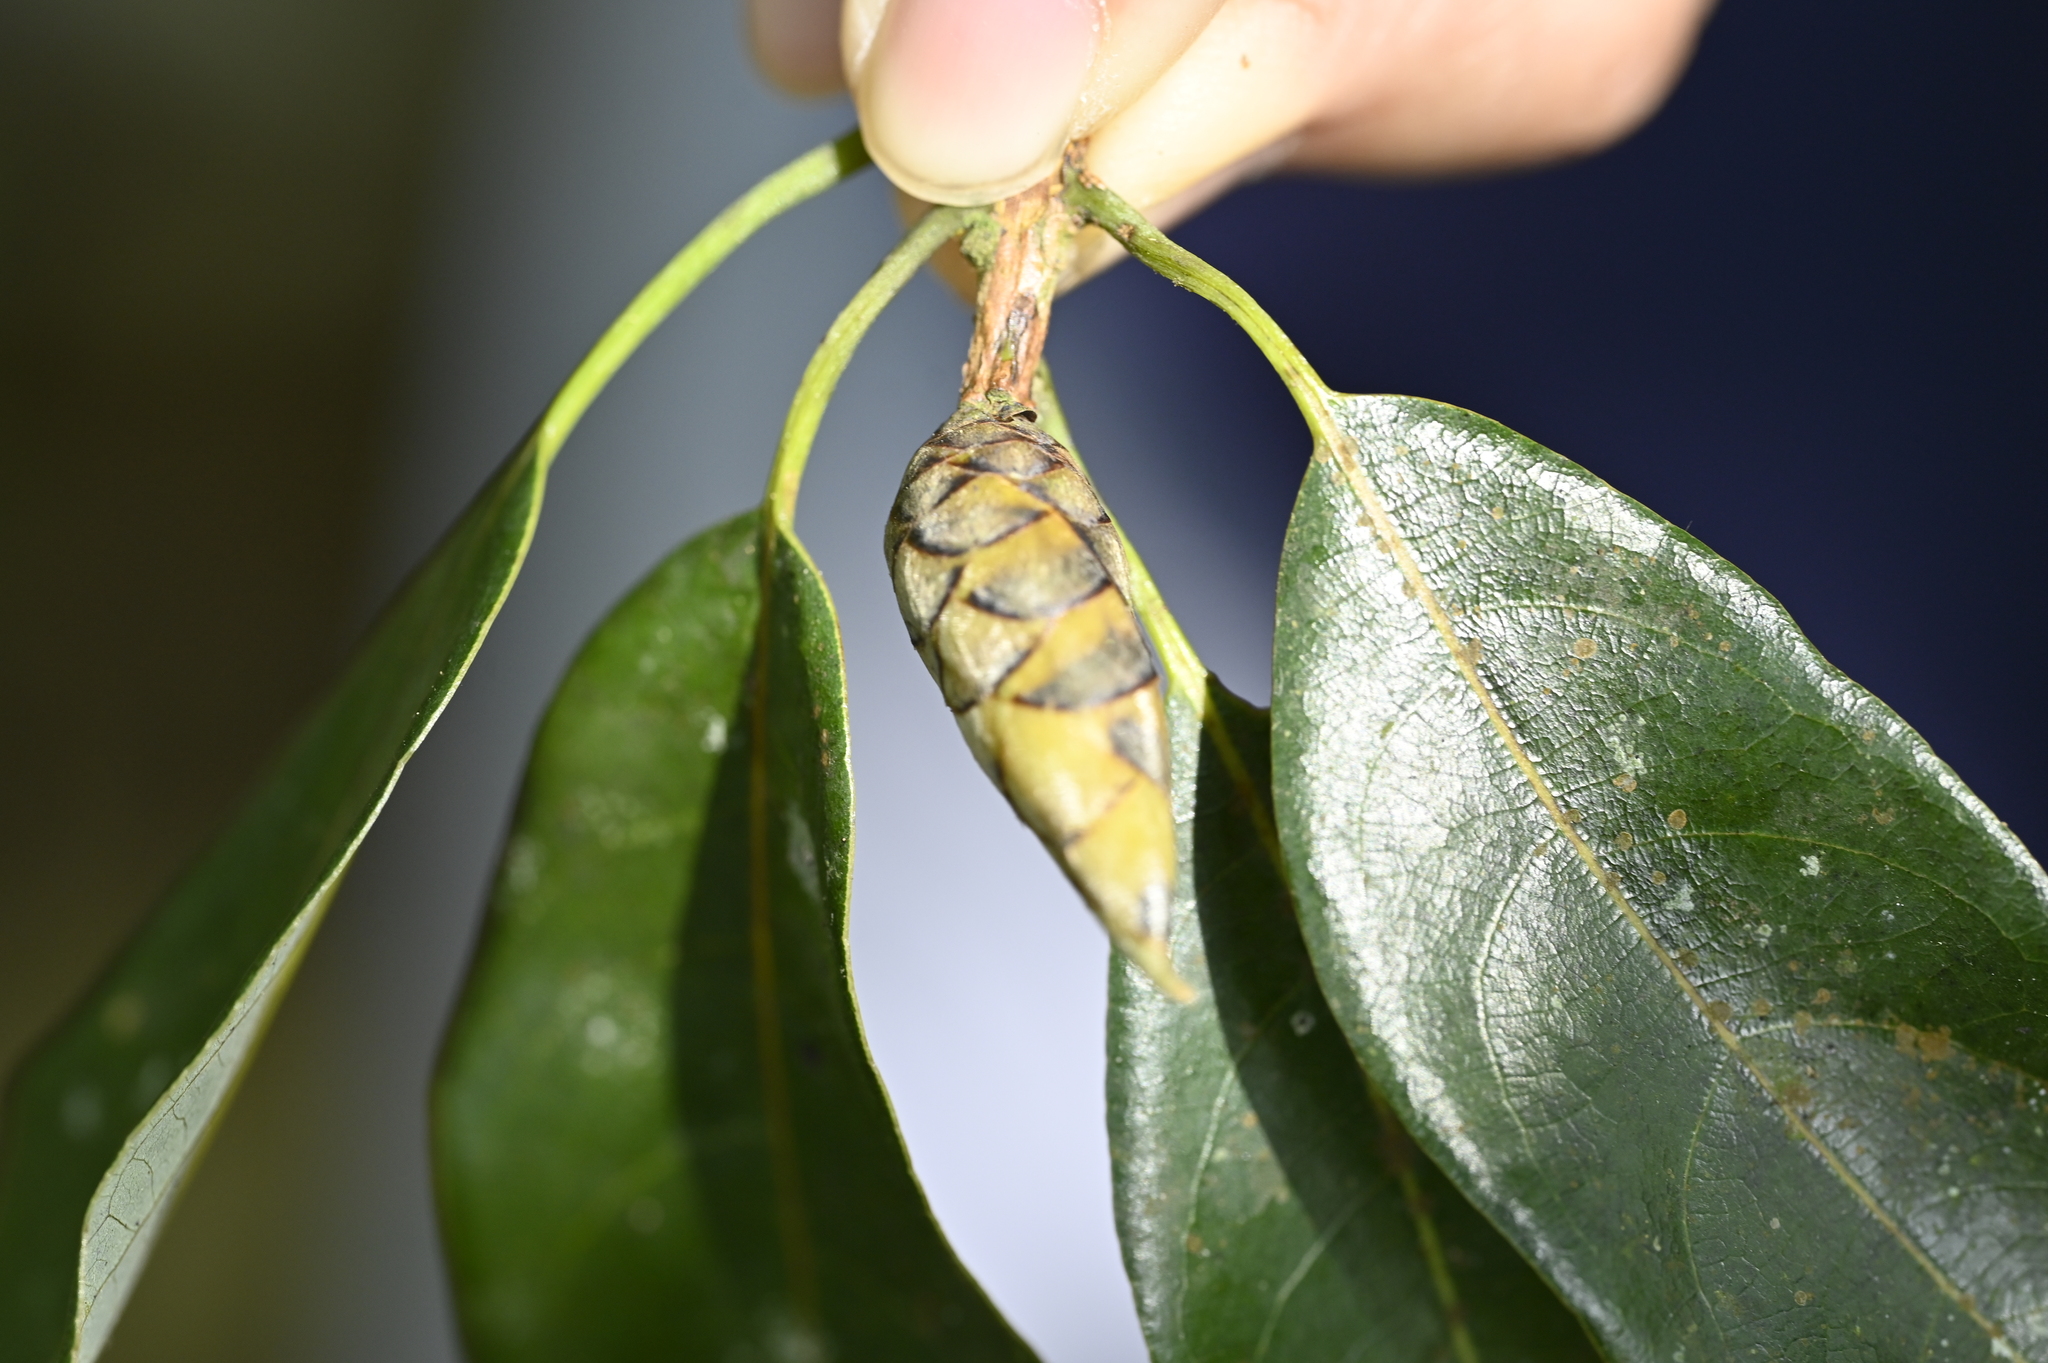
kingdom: Plantae
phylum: Tracheophyta
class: Magnoliopsida
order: Laurales
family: Lauraceae
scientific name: Lauraceae
